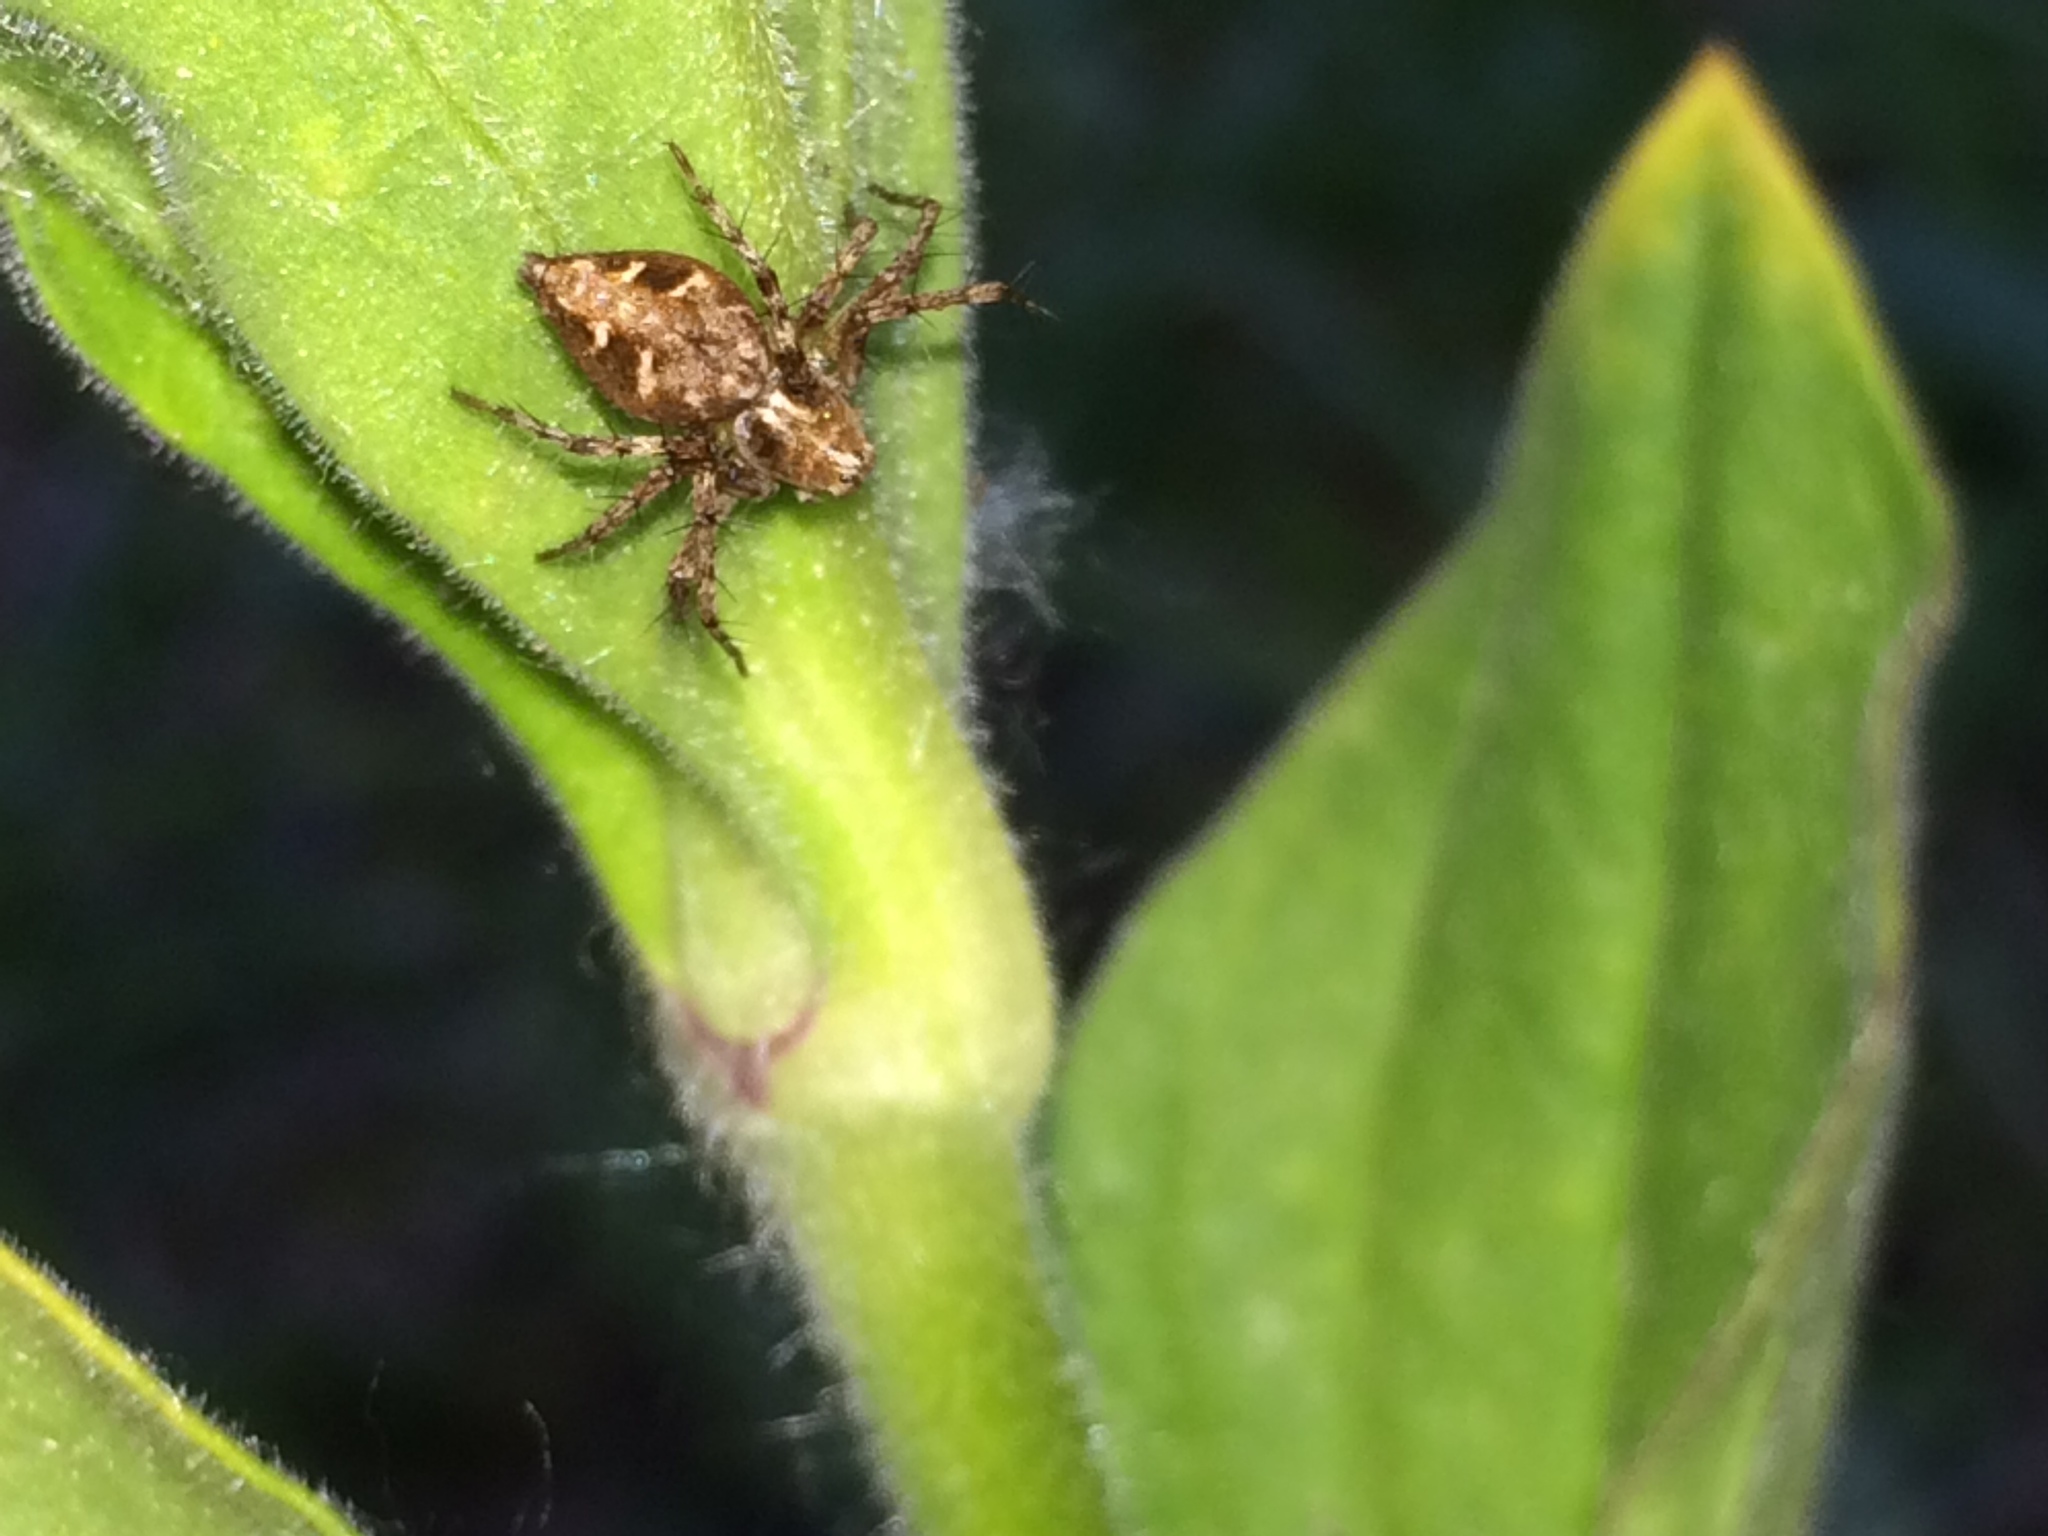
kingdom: Animalia
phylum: Arthropoda
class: Arachnida
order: Araneae
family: Oxyopidae
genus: Oxyopes
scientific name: Oxyopes scalaris
